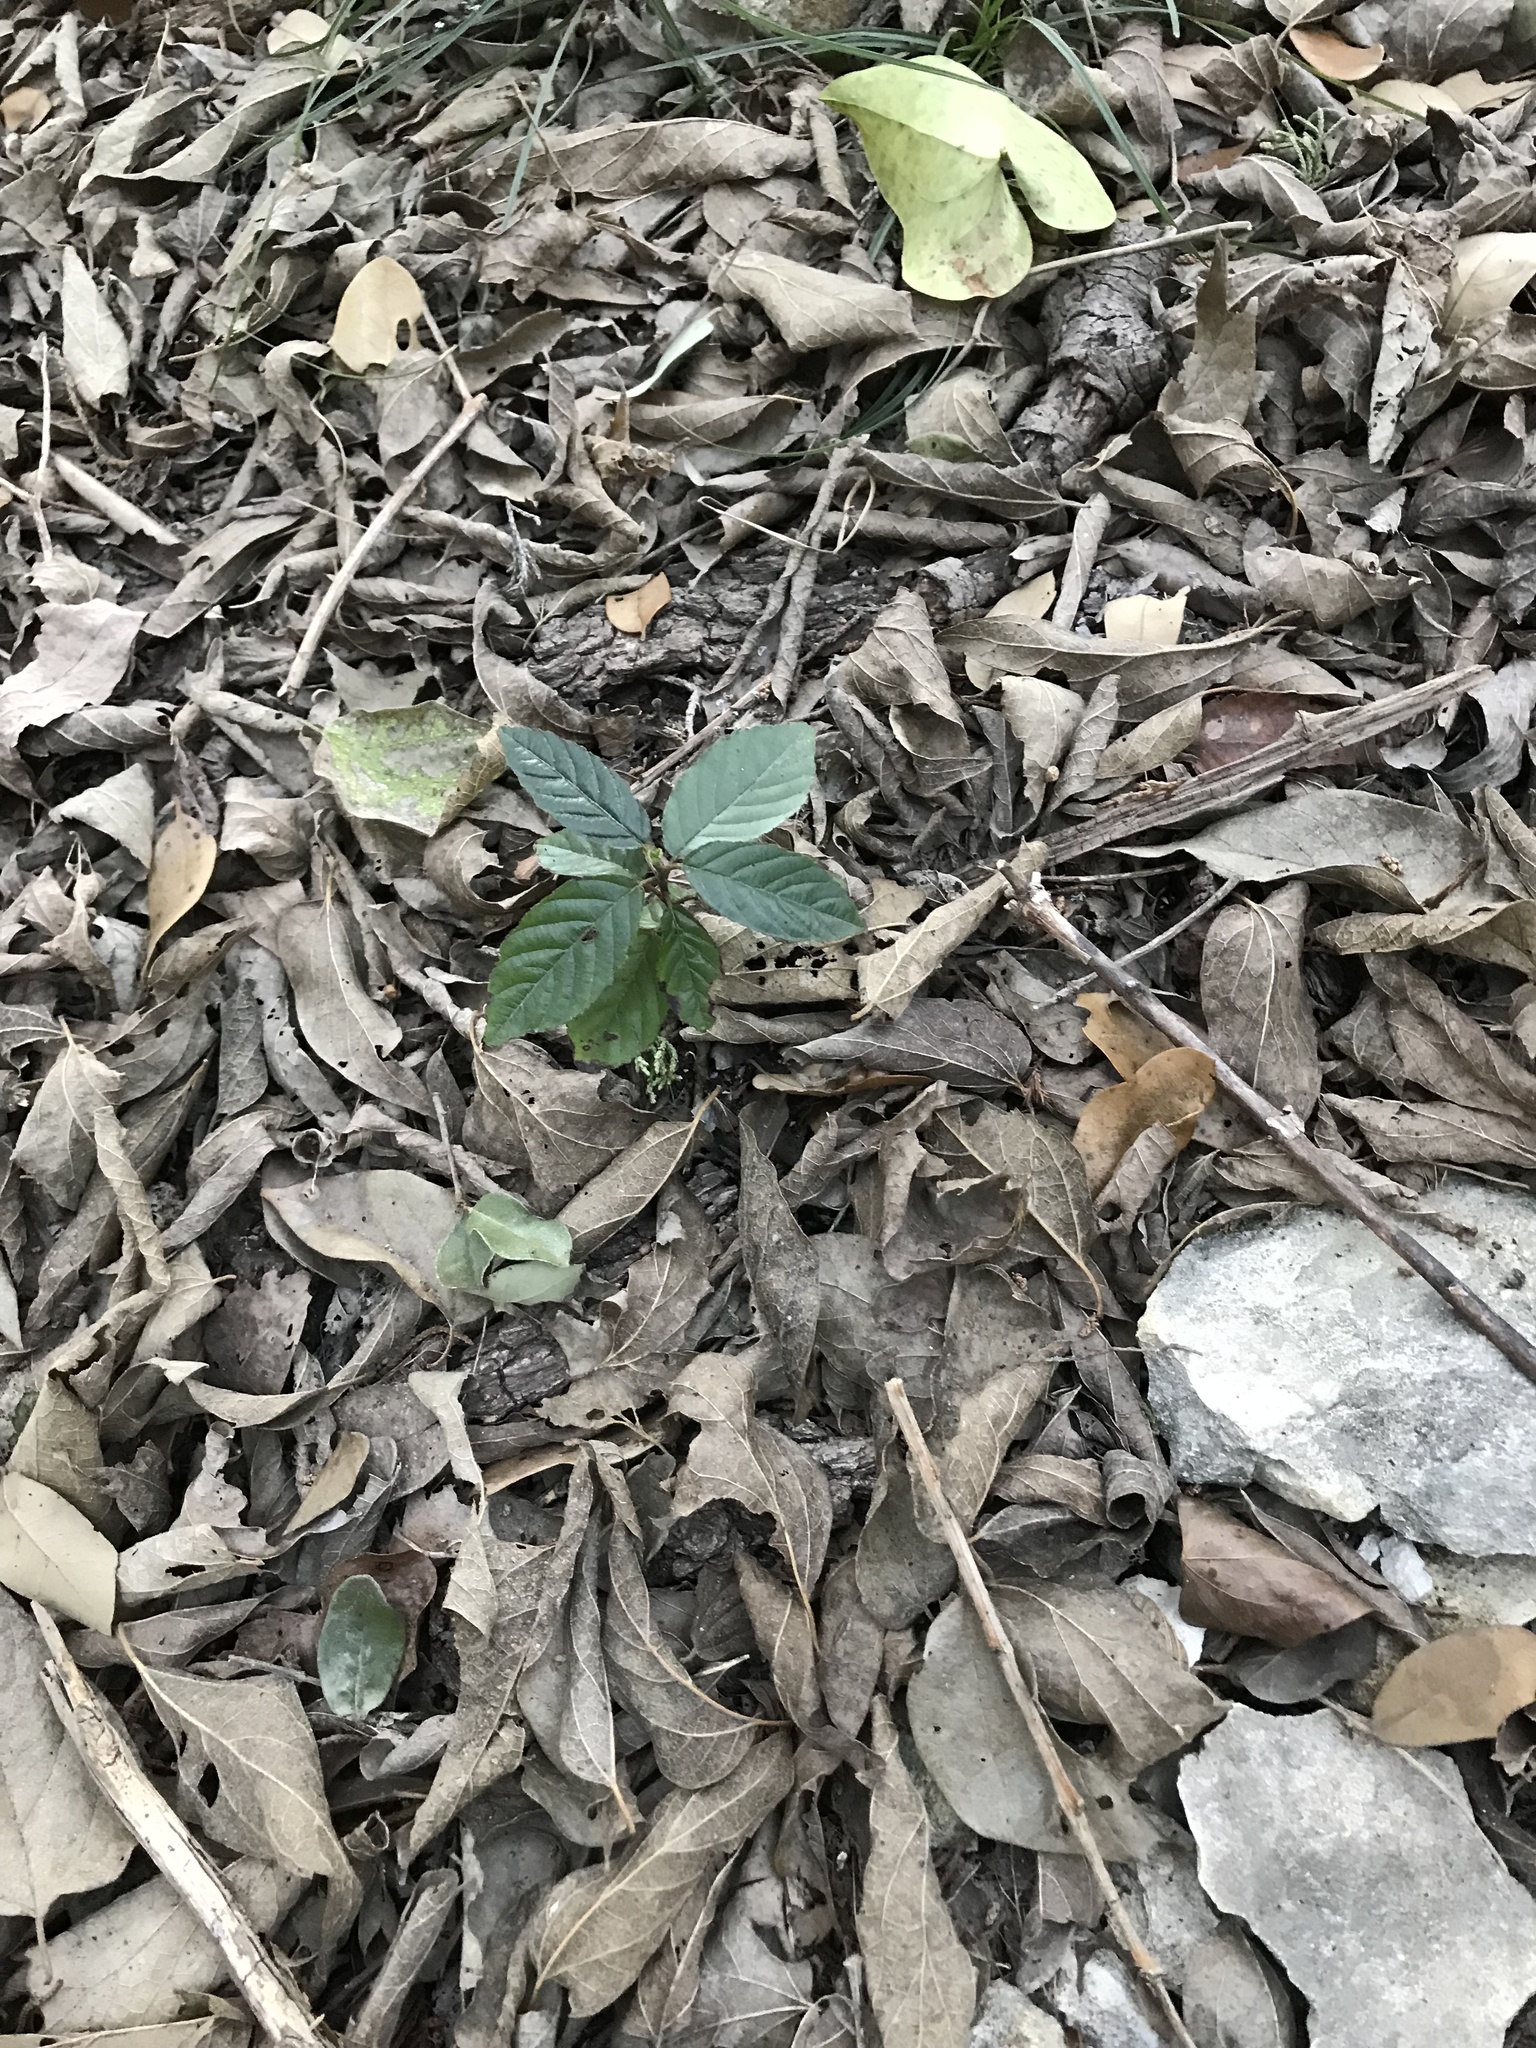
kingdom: Plantae
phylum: Tracheophyta
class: Magnoliopsida
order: Rosales
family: Rhamnaceae
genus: Frangula
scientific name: Frangula caroliniana
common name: Carolina buckthorn
